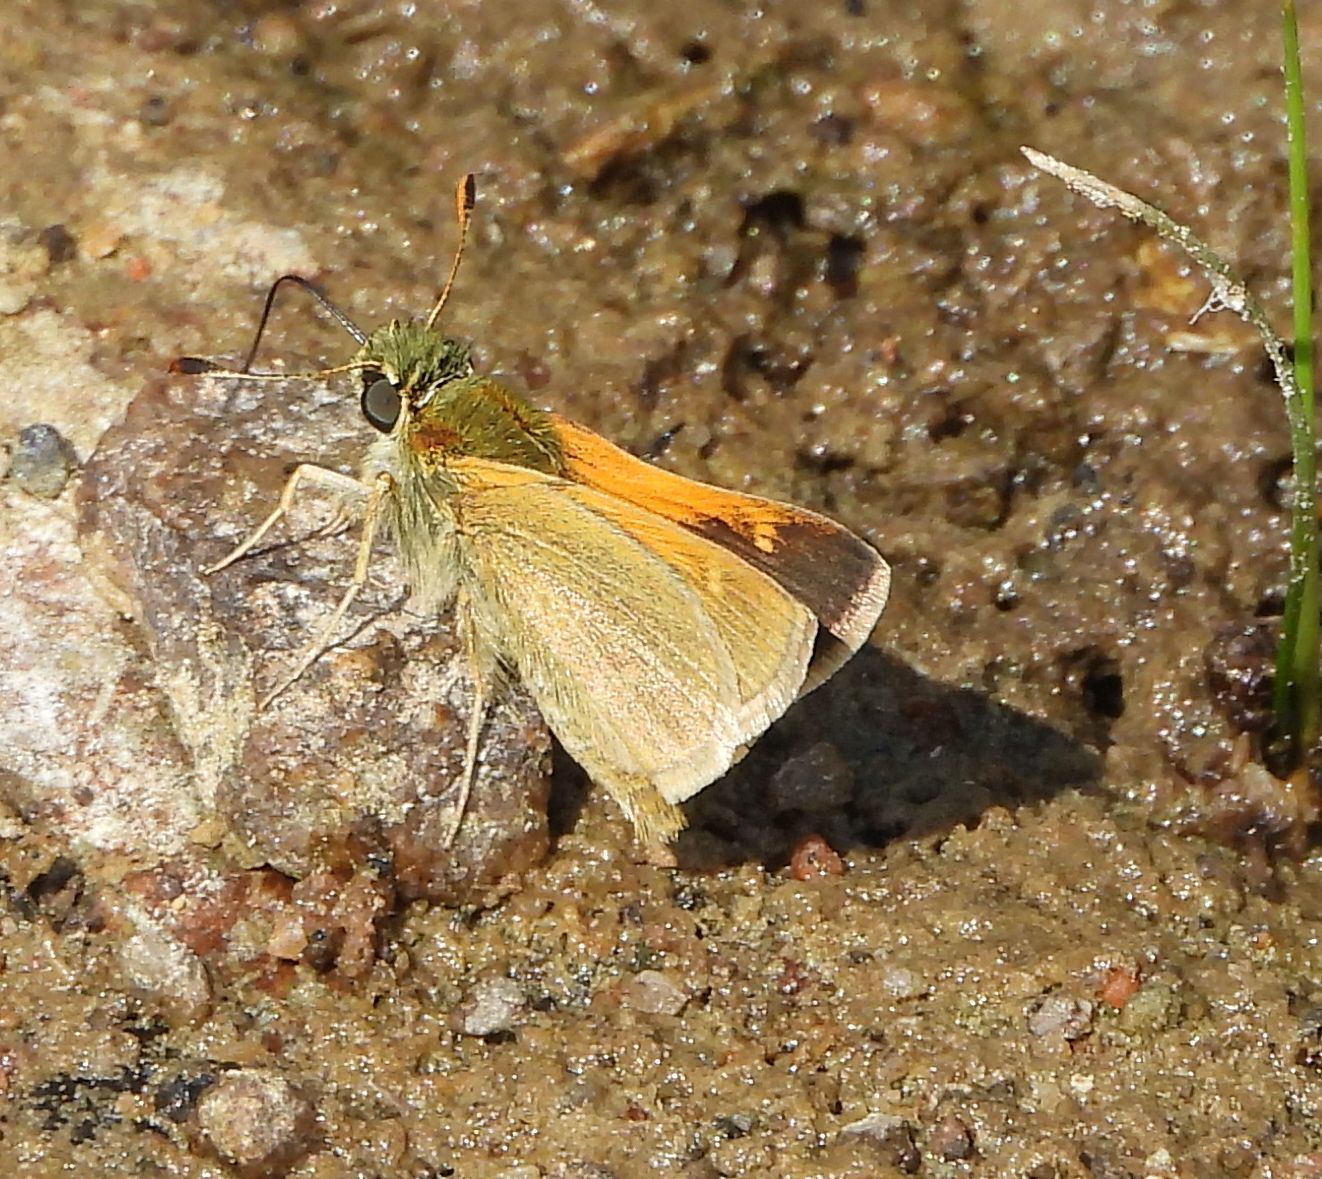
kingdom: Animalia
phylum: Arthropoda
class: Insecta
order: Lepidoptera
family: Hesperiidae
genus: Polites
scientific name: Polites themistocles
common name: Tawny-edged skipper
